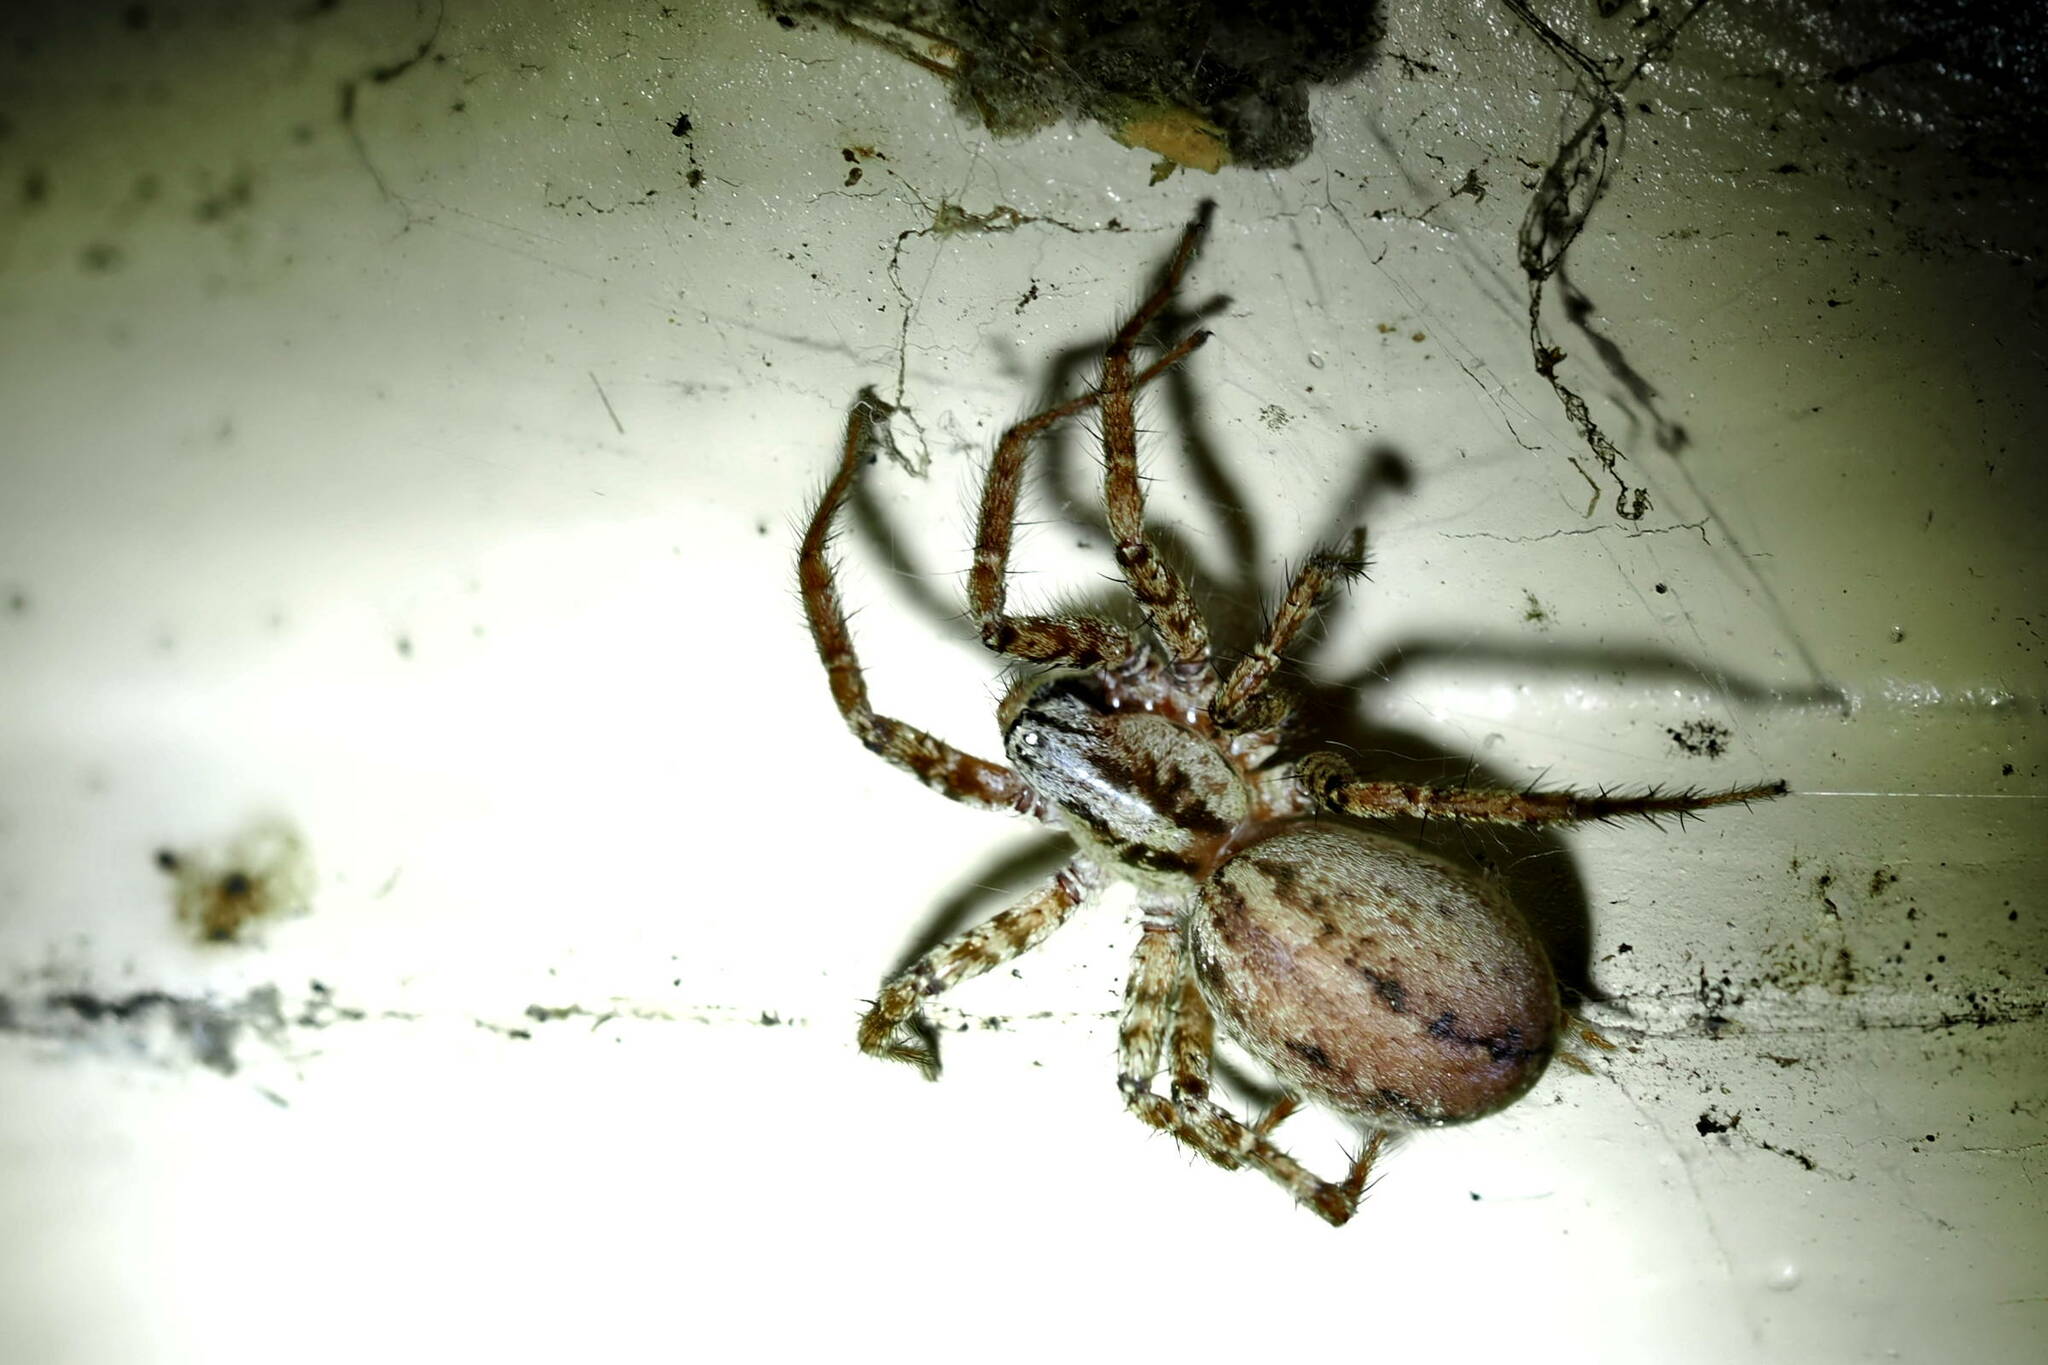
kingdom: Animalia
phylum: Arthropoda
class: Arachnida
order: Araneae
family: Agelenidae
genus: Barronopsis
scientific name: Barronopsis texana
